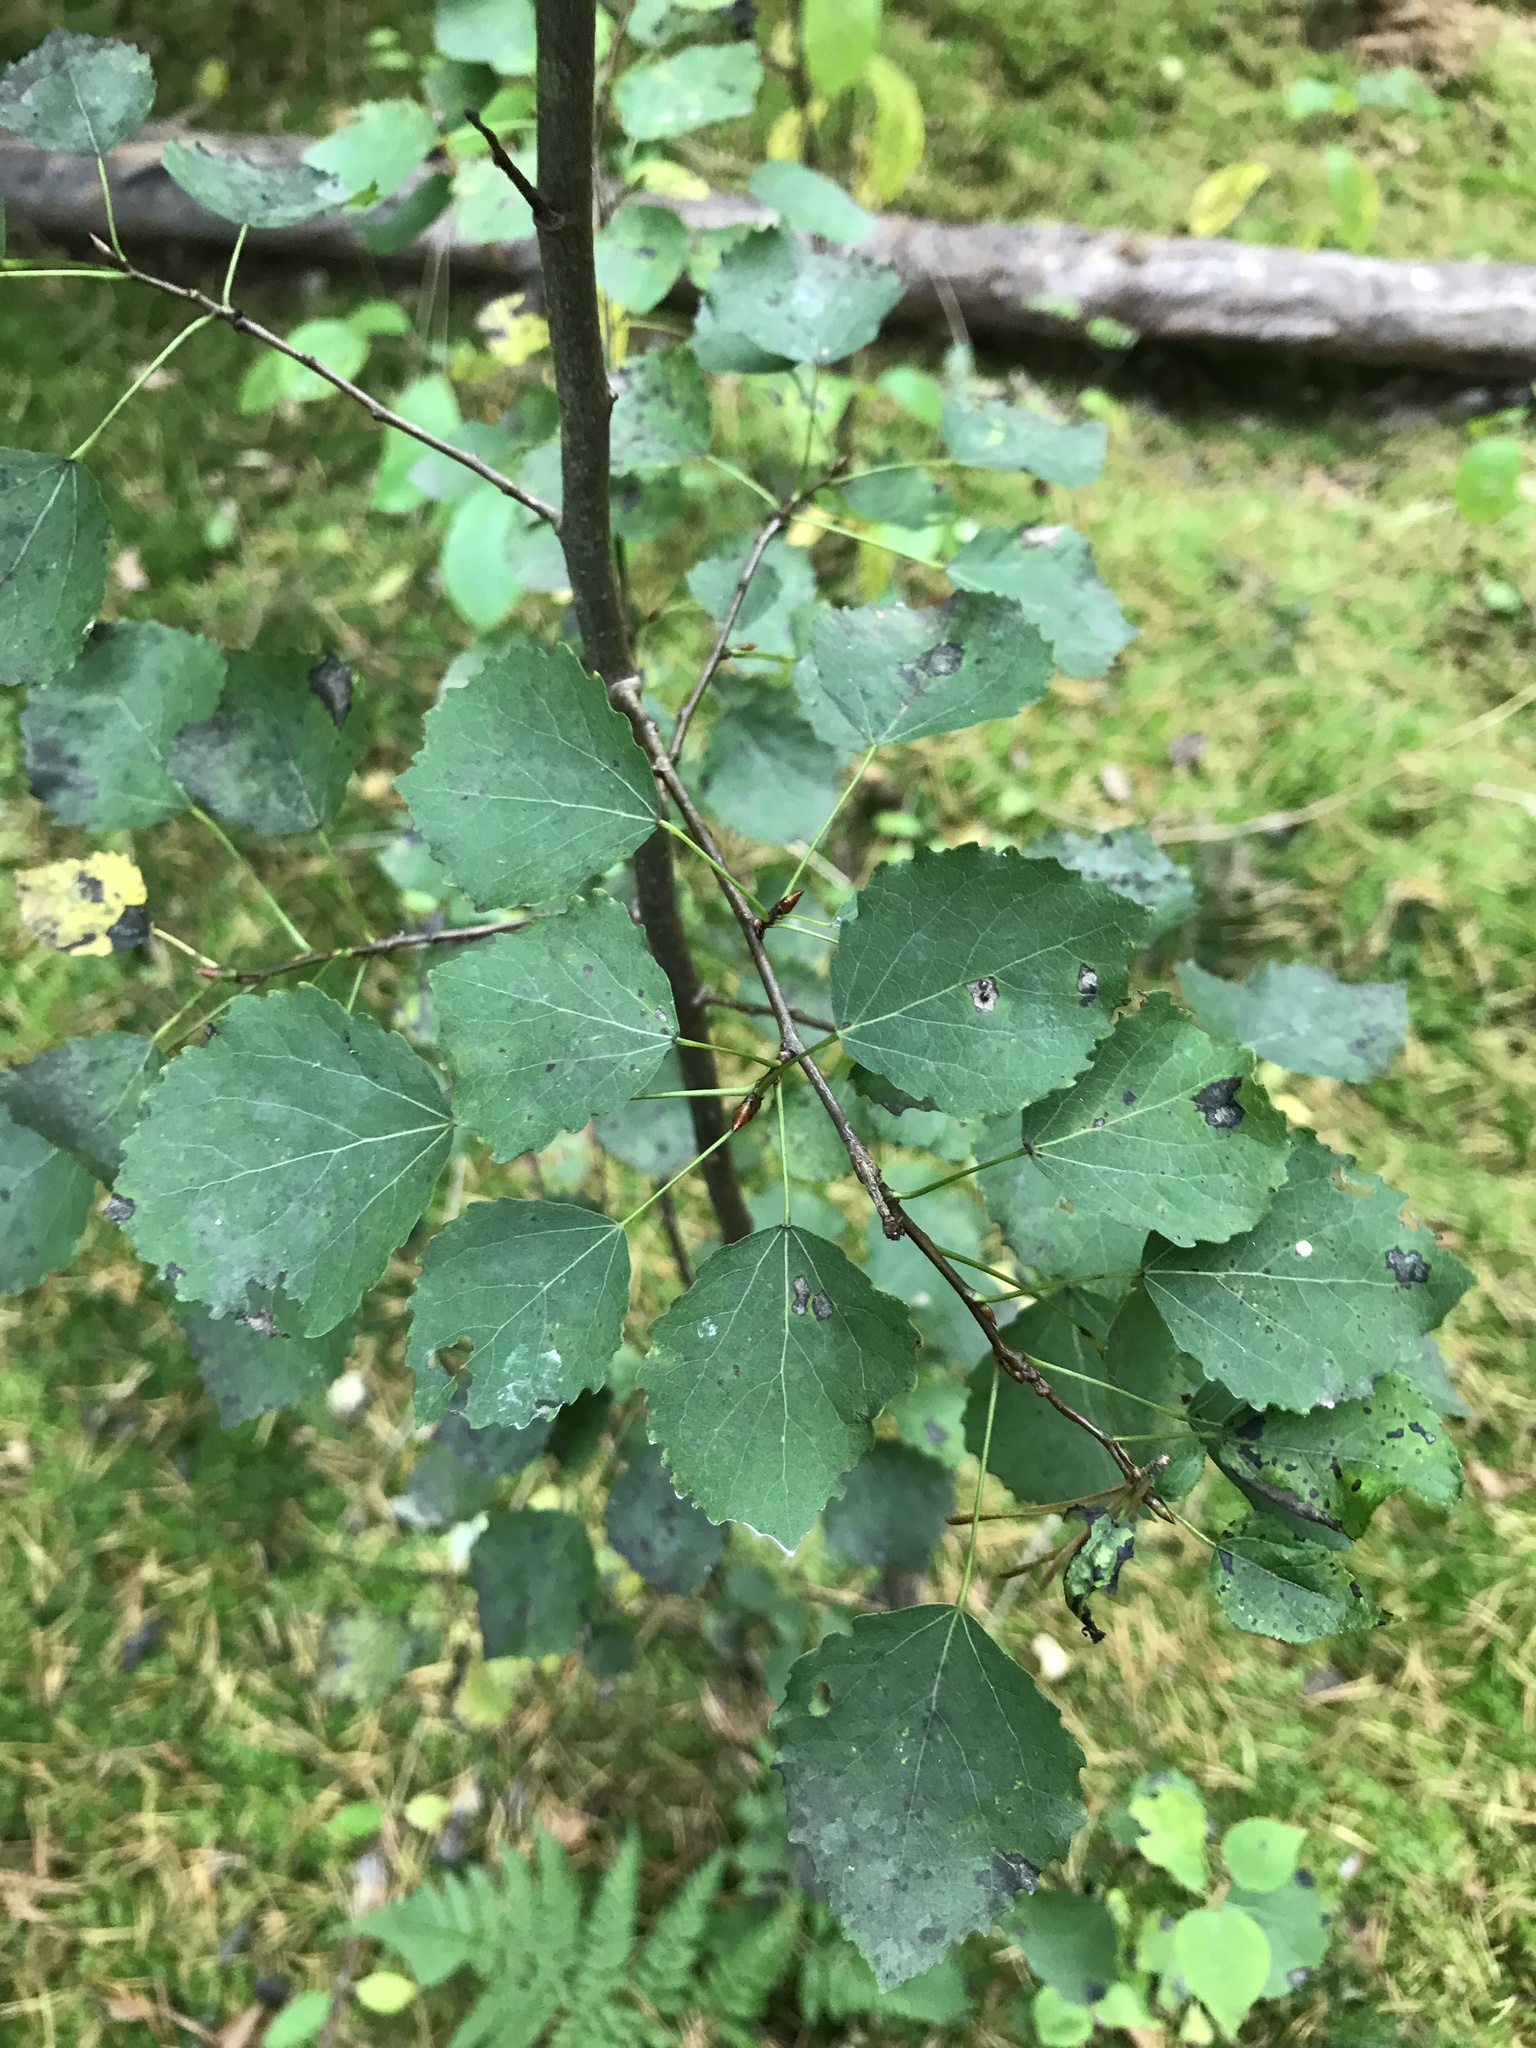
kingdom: Plantae
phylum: Tracheophyta
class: Magnoliopsida
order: Malpighiales
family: Salicaceae
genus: Populus
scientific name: Populus tremula
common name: European aspen
